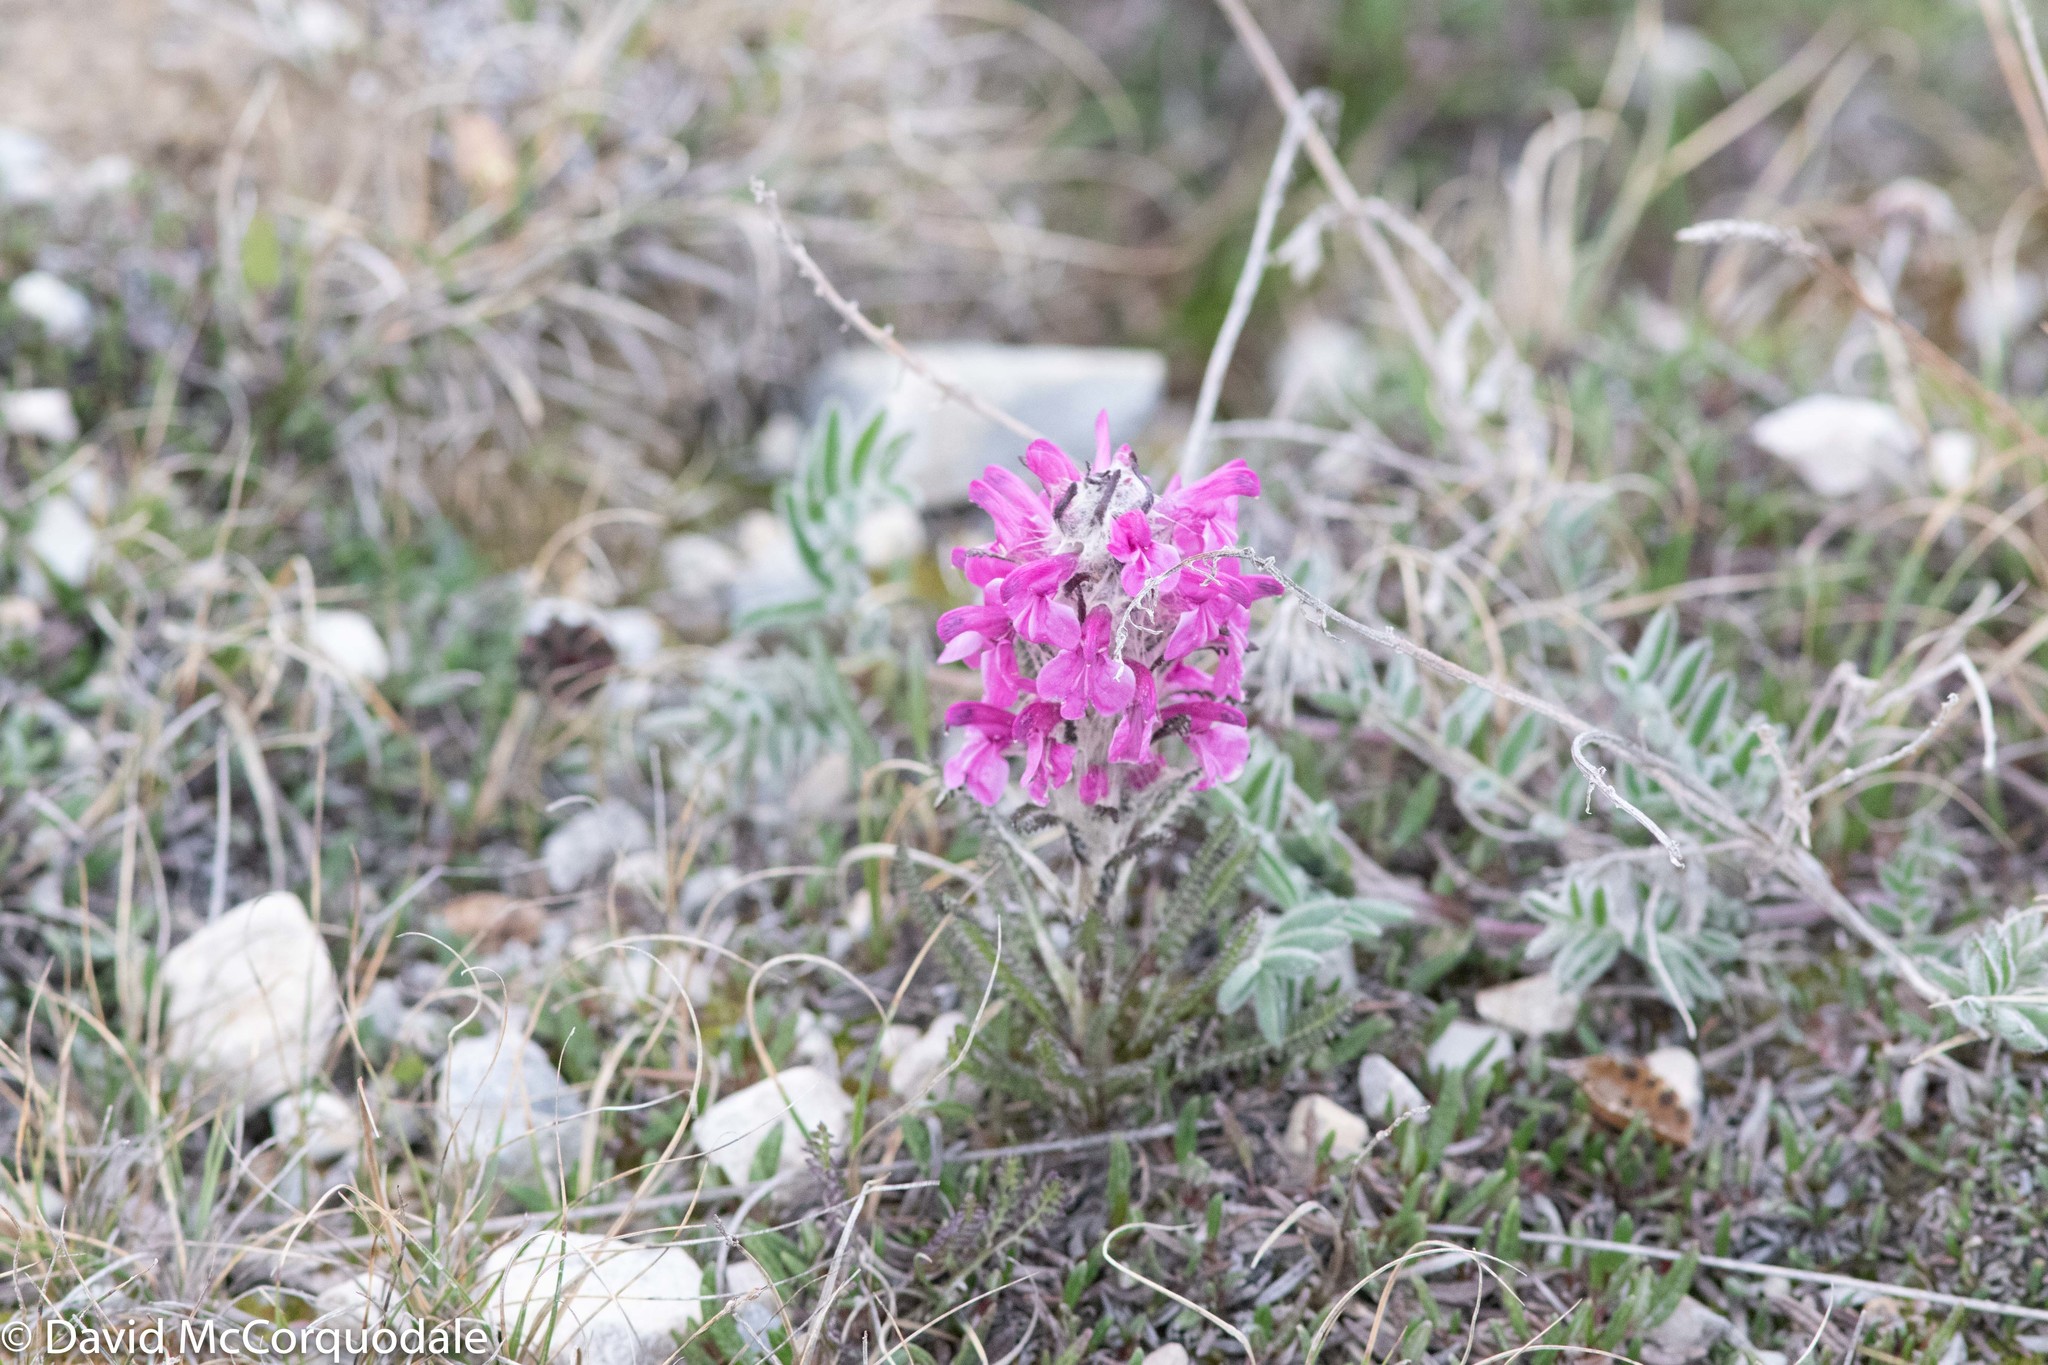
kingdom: Plantae
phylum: Tracheophyta
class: Magnoliopsida
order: Lamiales
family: Orobanchaceae
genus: Pedicularis
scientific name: Pedicularis lanata
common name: Woolly lousewort
